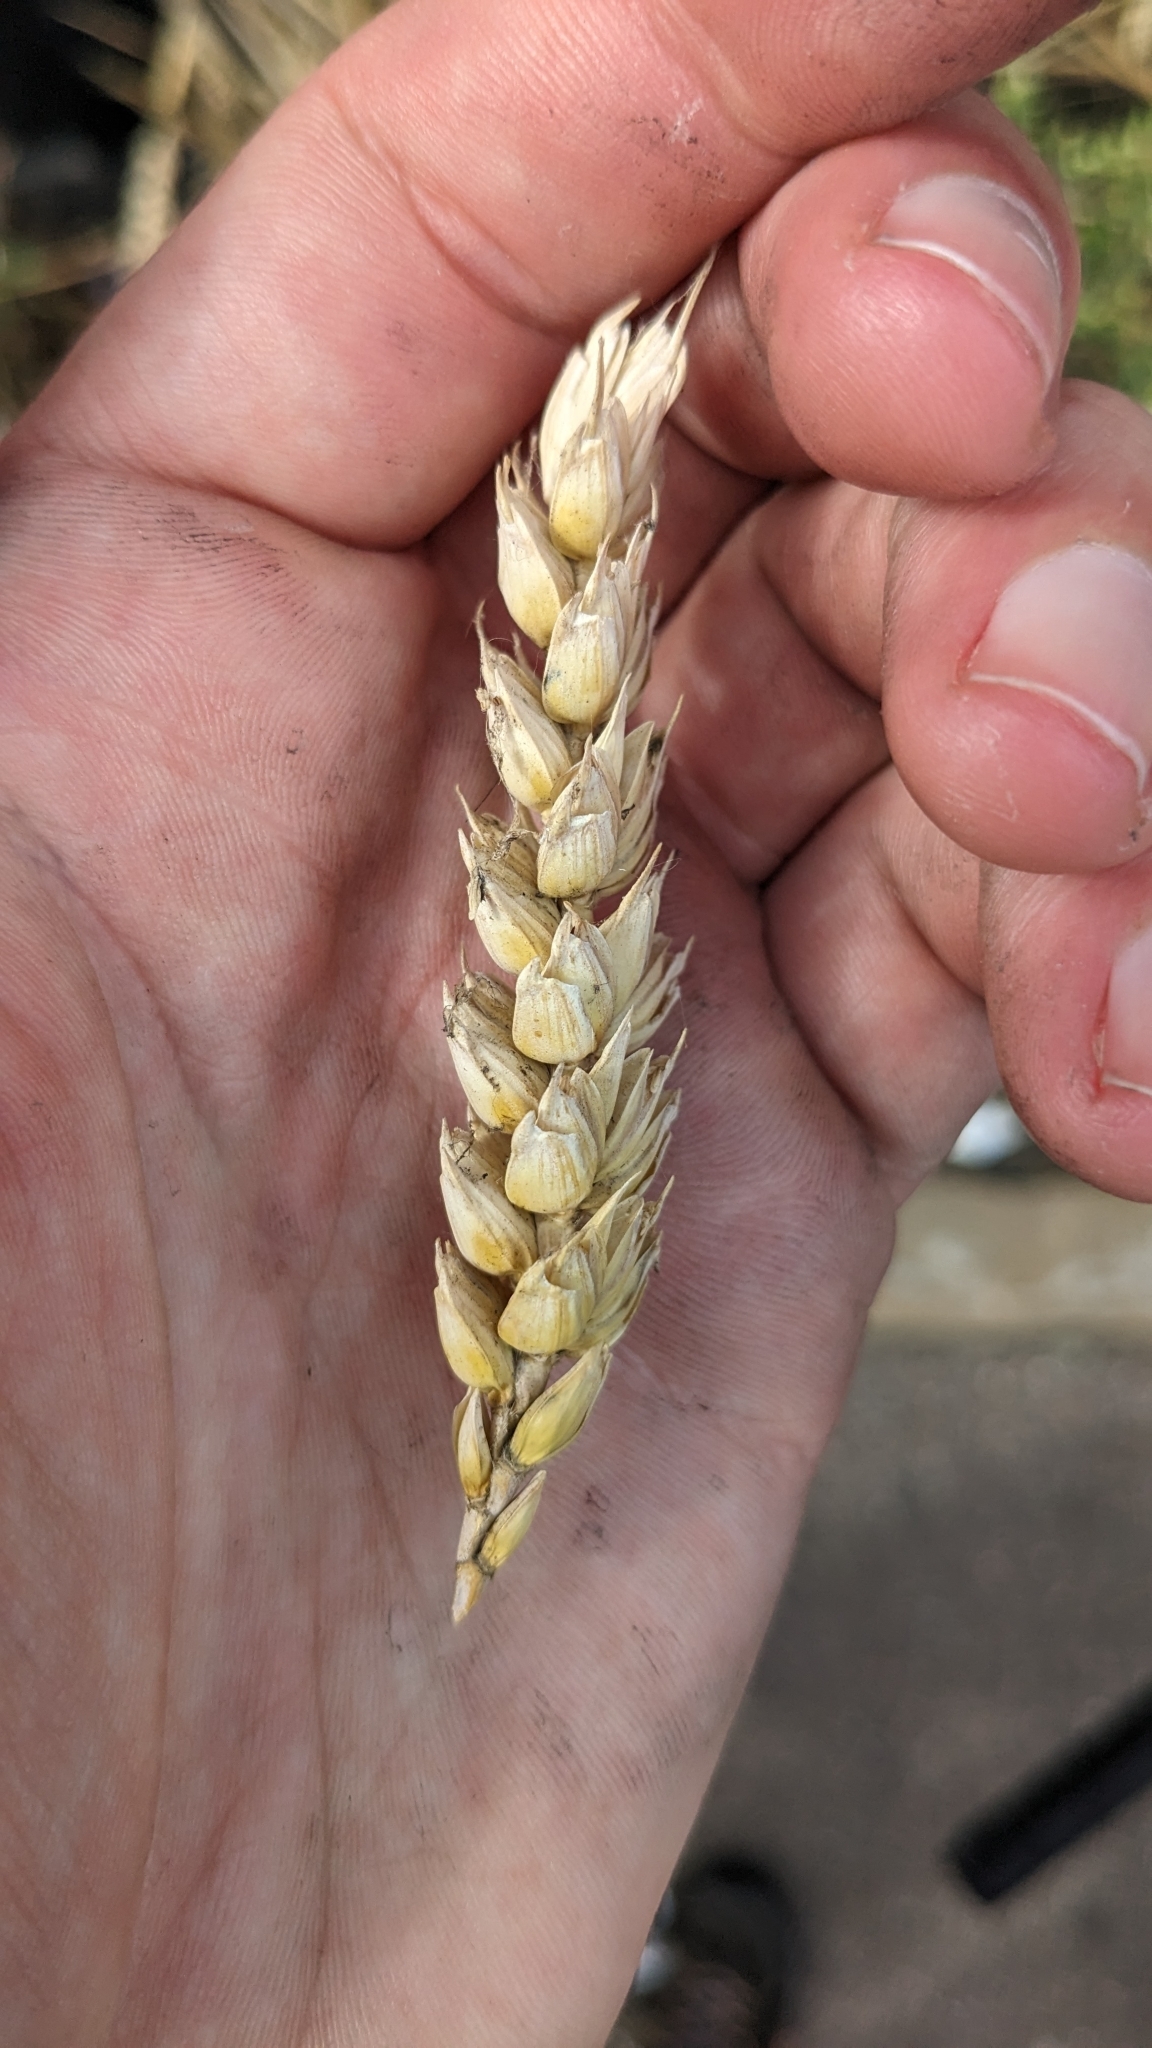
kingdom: Plantae
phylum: Tracheophyta
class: Liliopsida
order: Poales
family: Poaceae
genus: Triticum
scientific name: Triticum aestivum
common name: Common wheat
